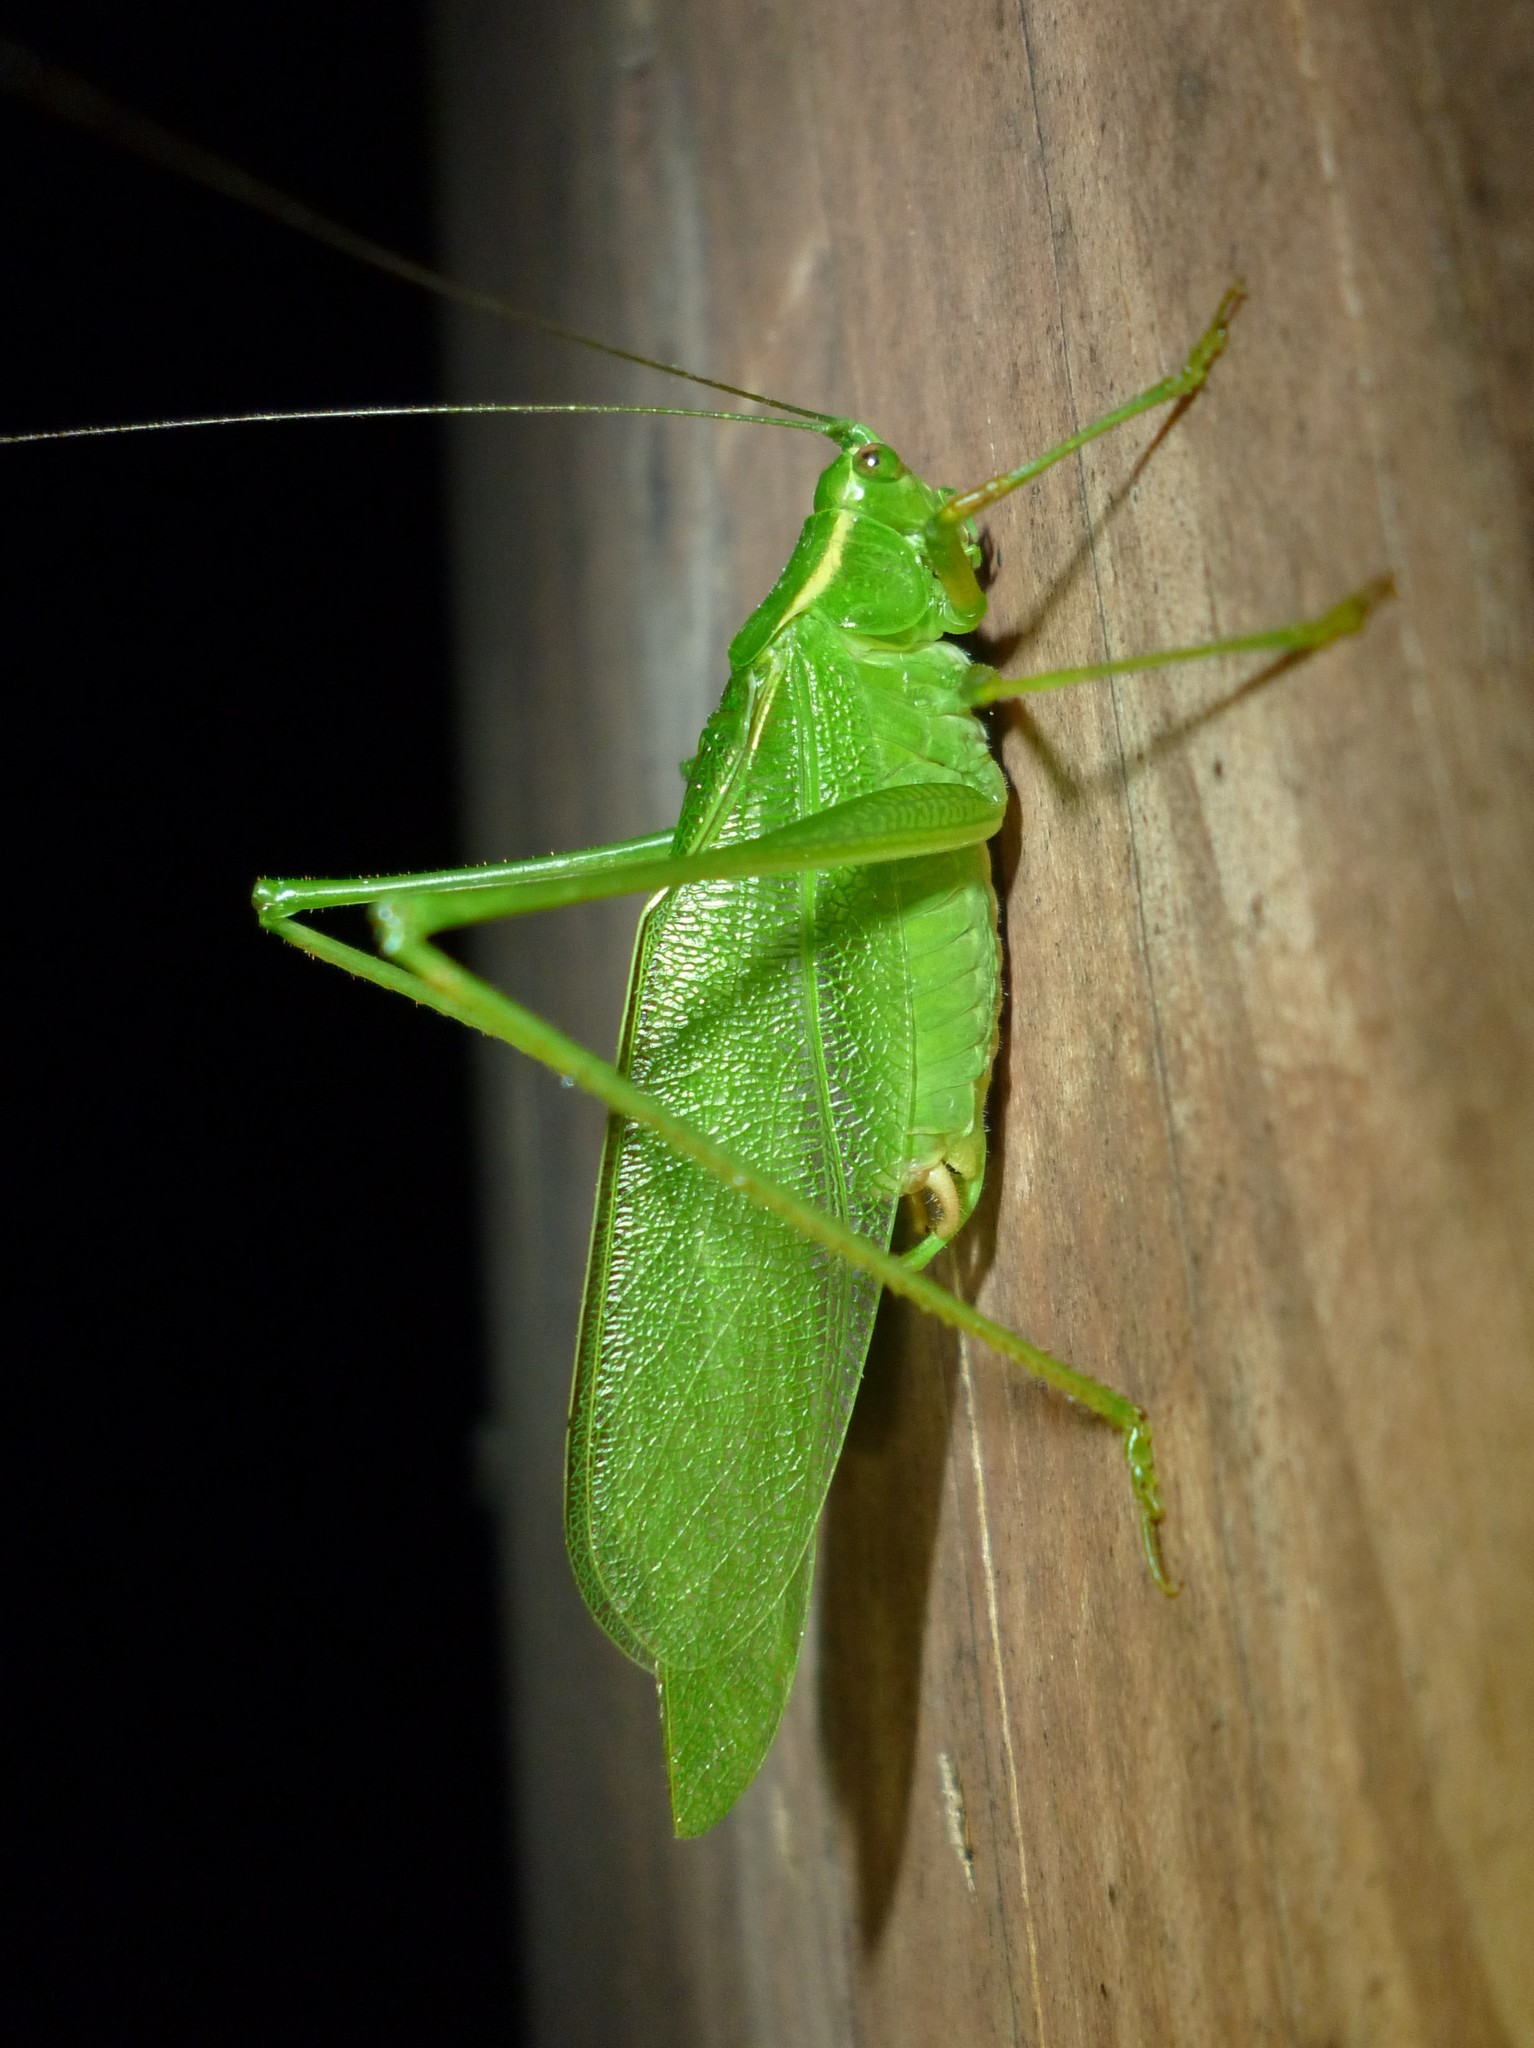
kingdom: Animalia
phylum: Arthropoda
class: Insecta
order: Orthoptera
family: Tettigoniidae
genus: Scudderia
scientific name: Scudderia septentrionalis
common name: Northern bush-katydid
